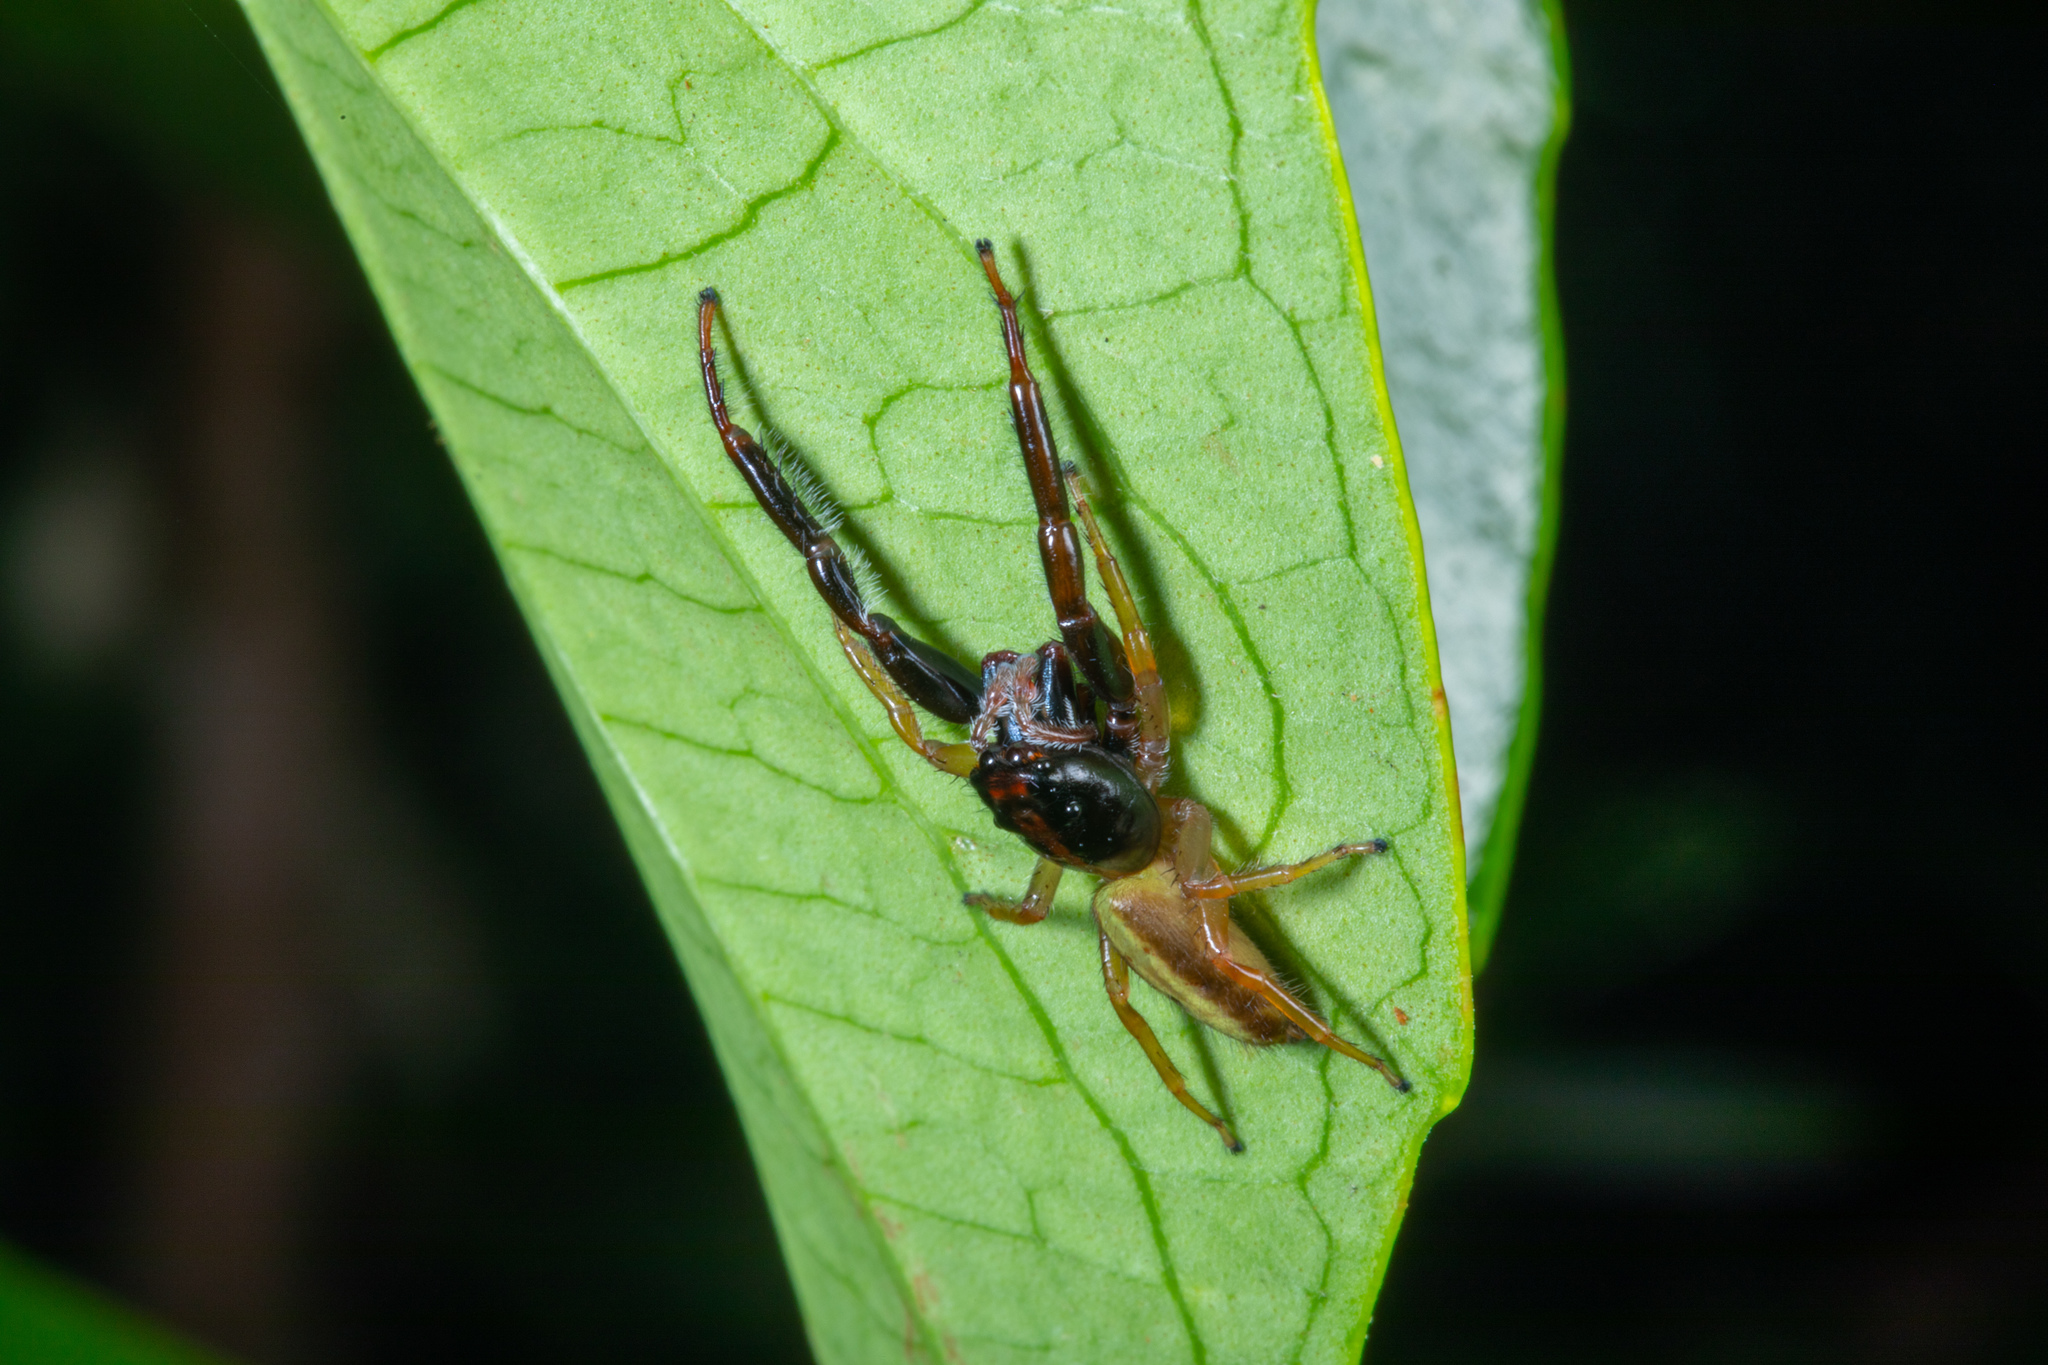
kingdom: Animalia
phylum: Arthropoda
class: Arachnida
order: Araneae
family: Salticidae
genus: Trite
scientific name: Trite planiceps
